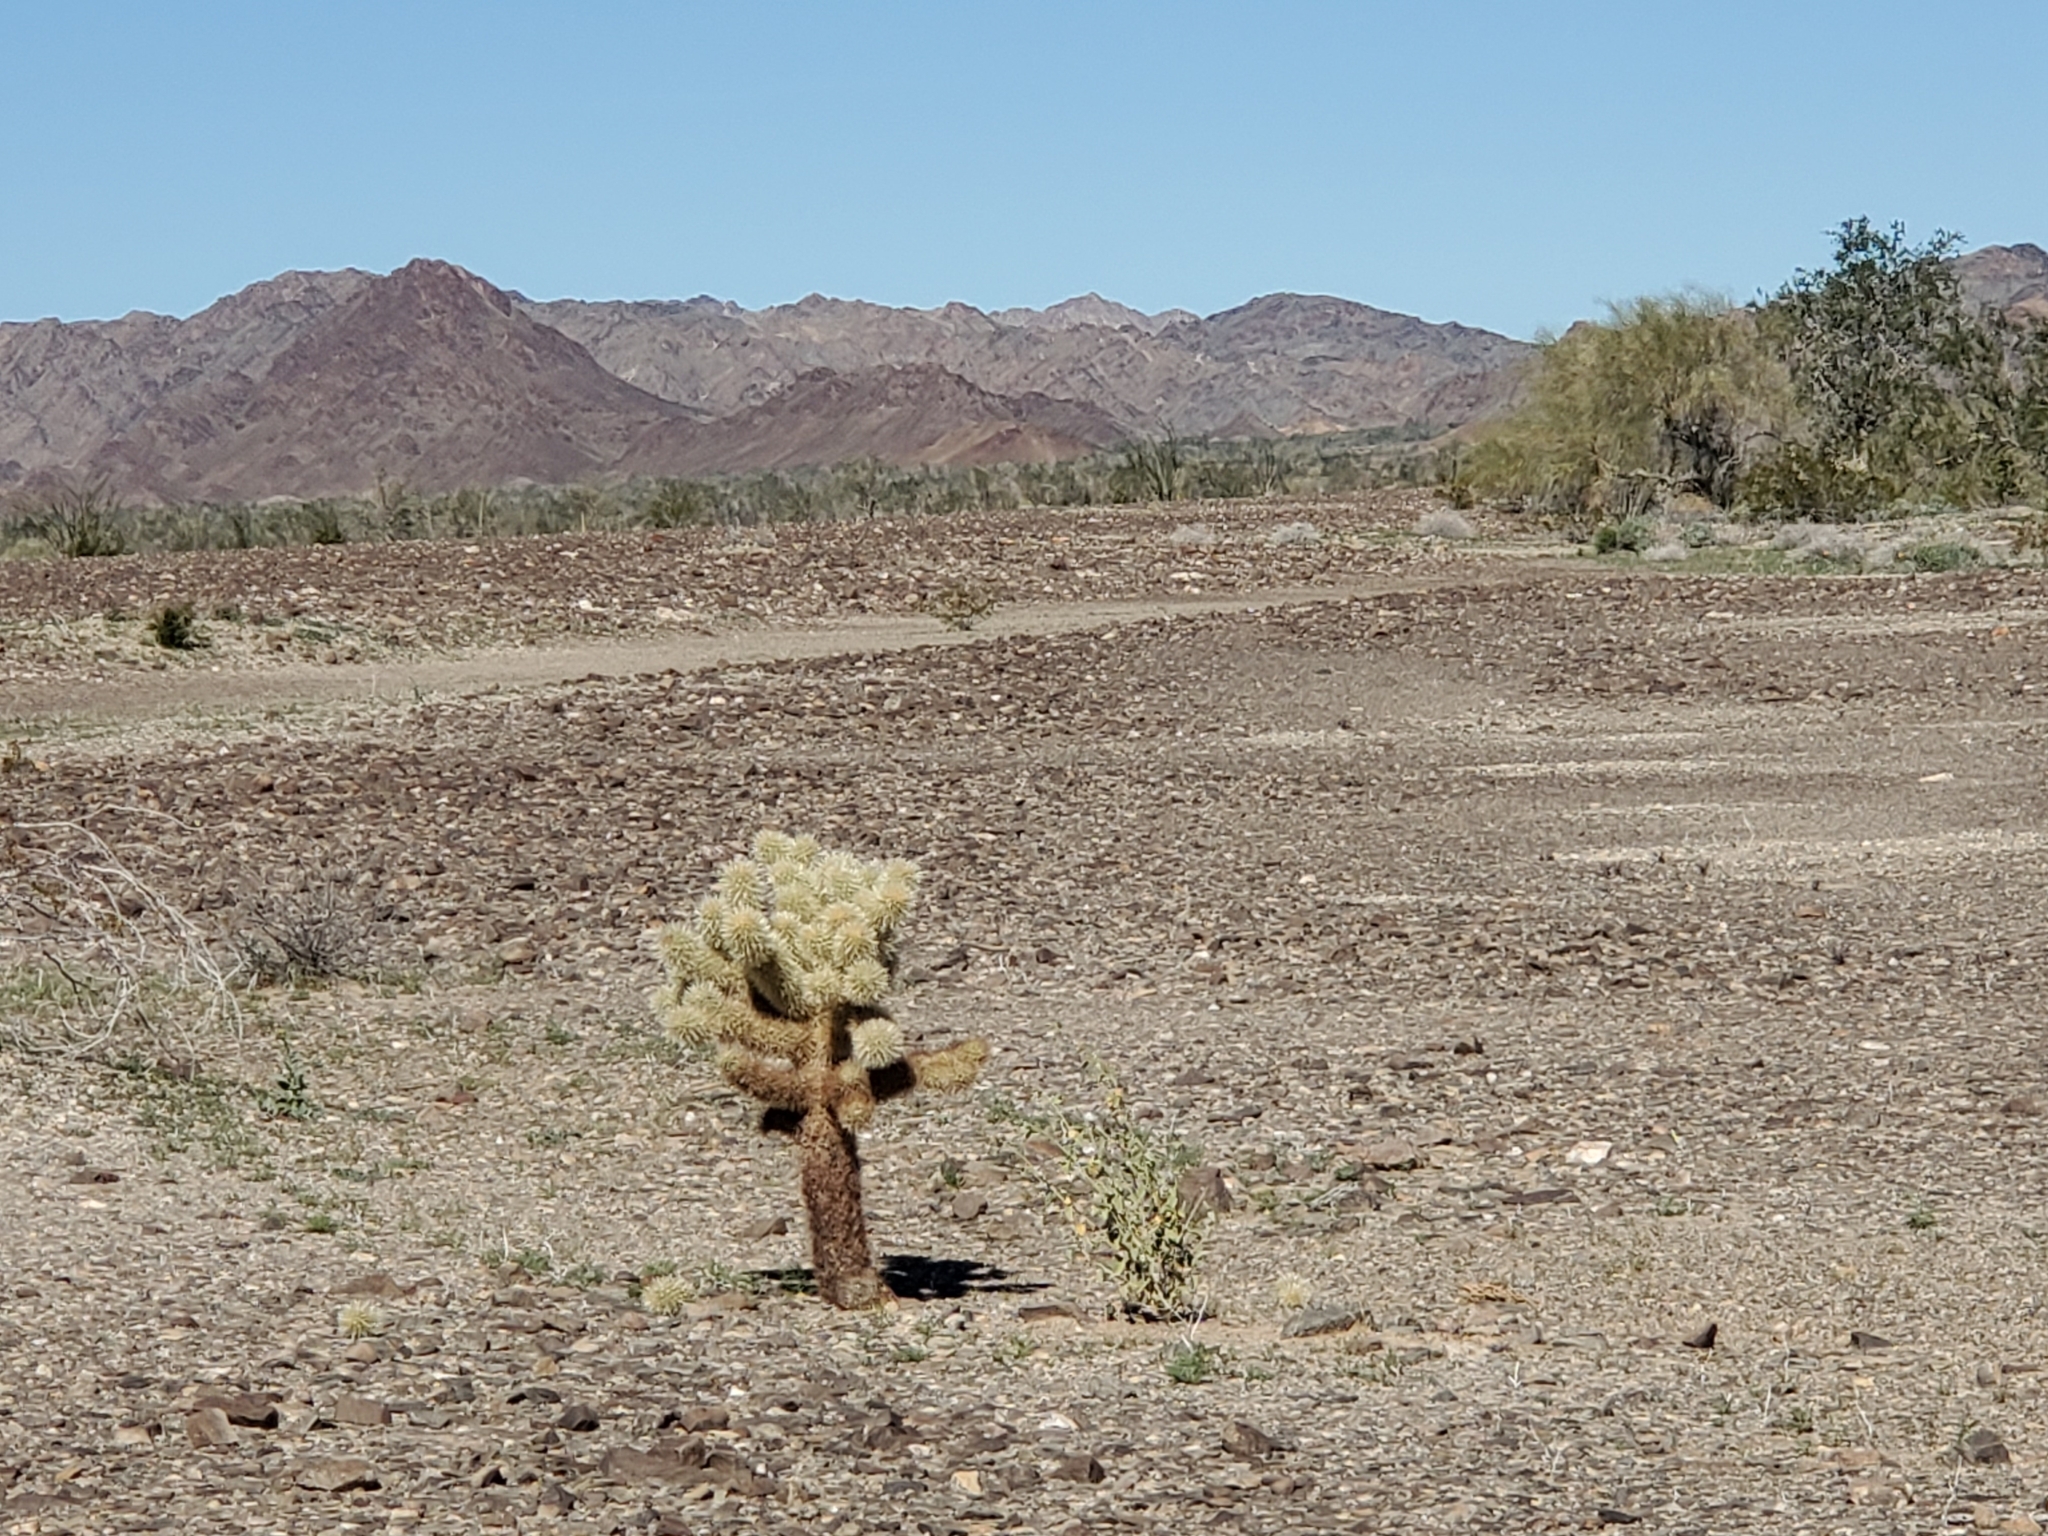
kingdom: Plantae
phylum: Tracheophyta
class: Magnoliopsida
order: Caryophyllales
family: Cactaceae
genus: Cylindropuntia
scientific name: Cylindropuntia fosbergii
